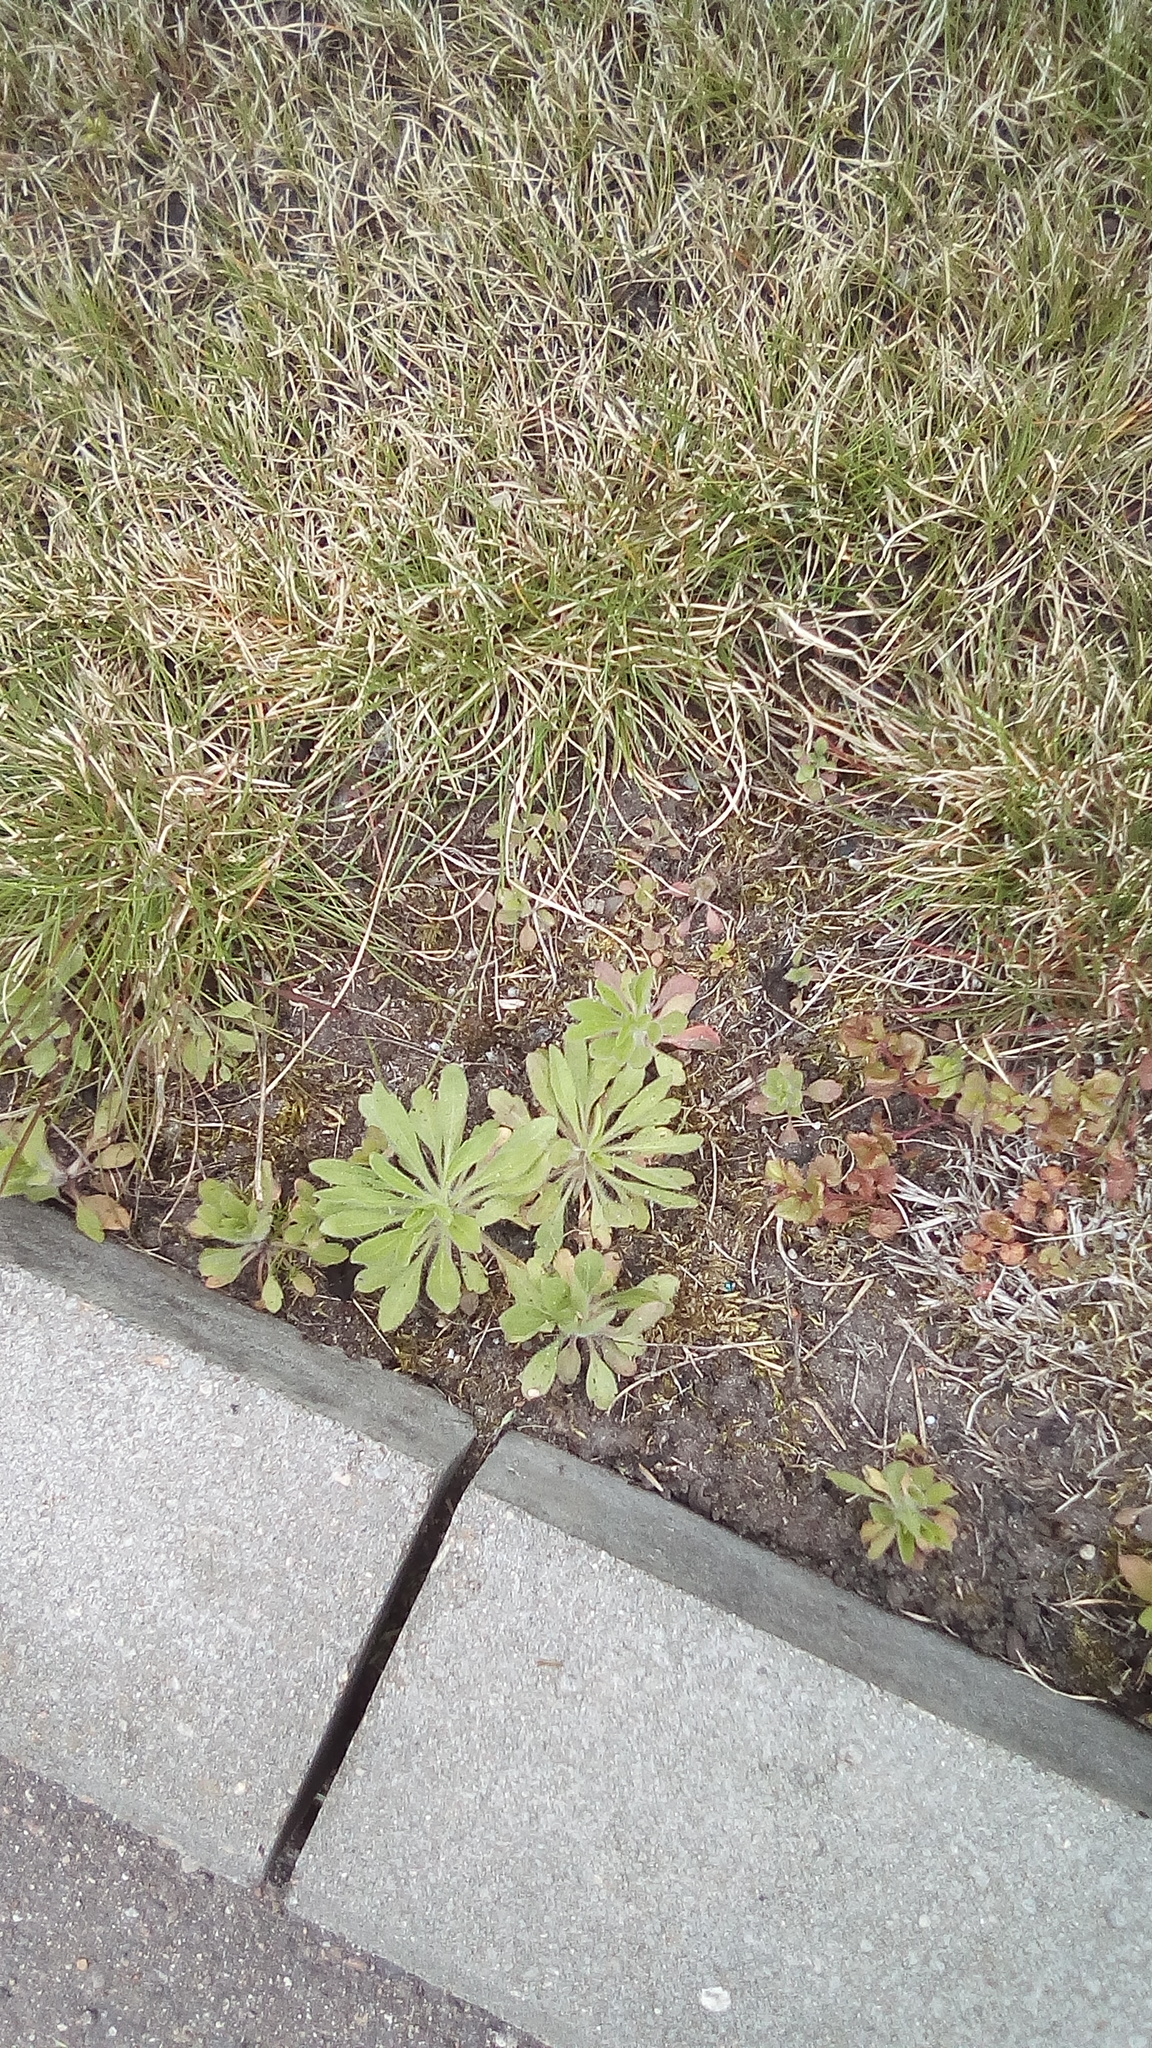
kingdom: Plantae
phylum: Tracheophyta
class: Magnoliopsida
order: Asterales
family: Asteraceae
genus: Erigeron
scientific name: Erigeron canadensis
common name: Canadian fleabane
